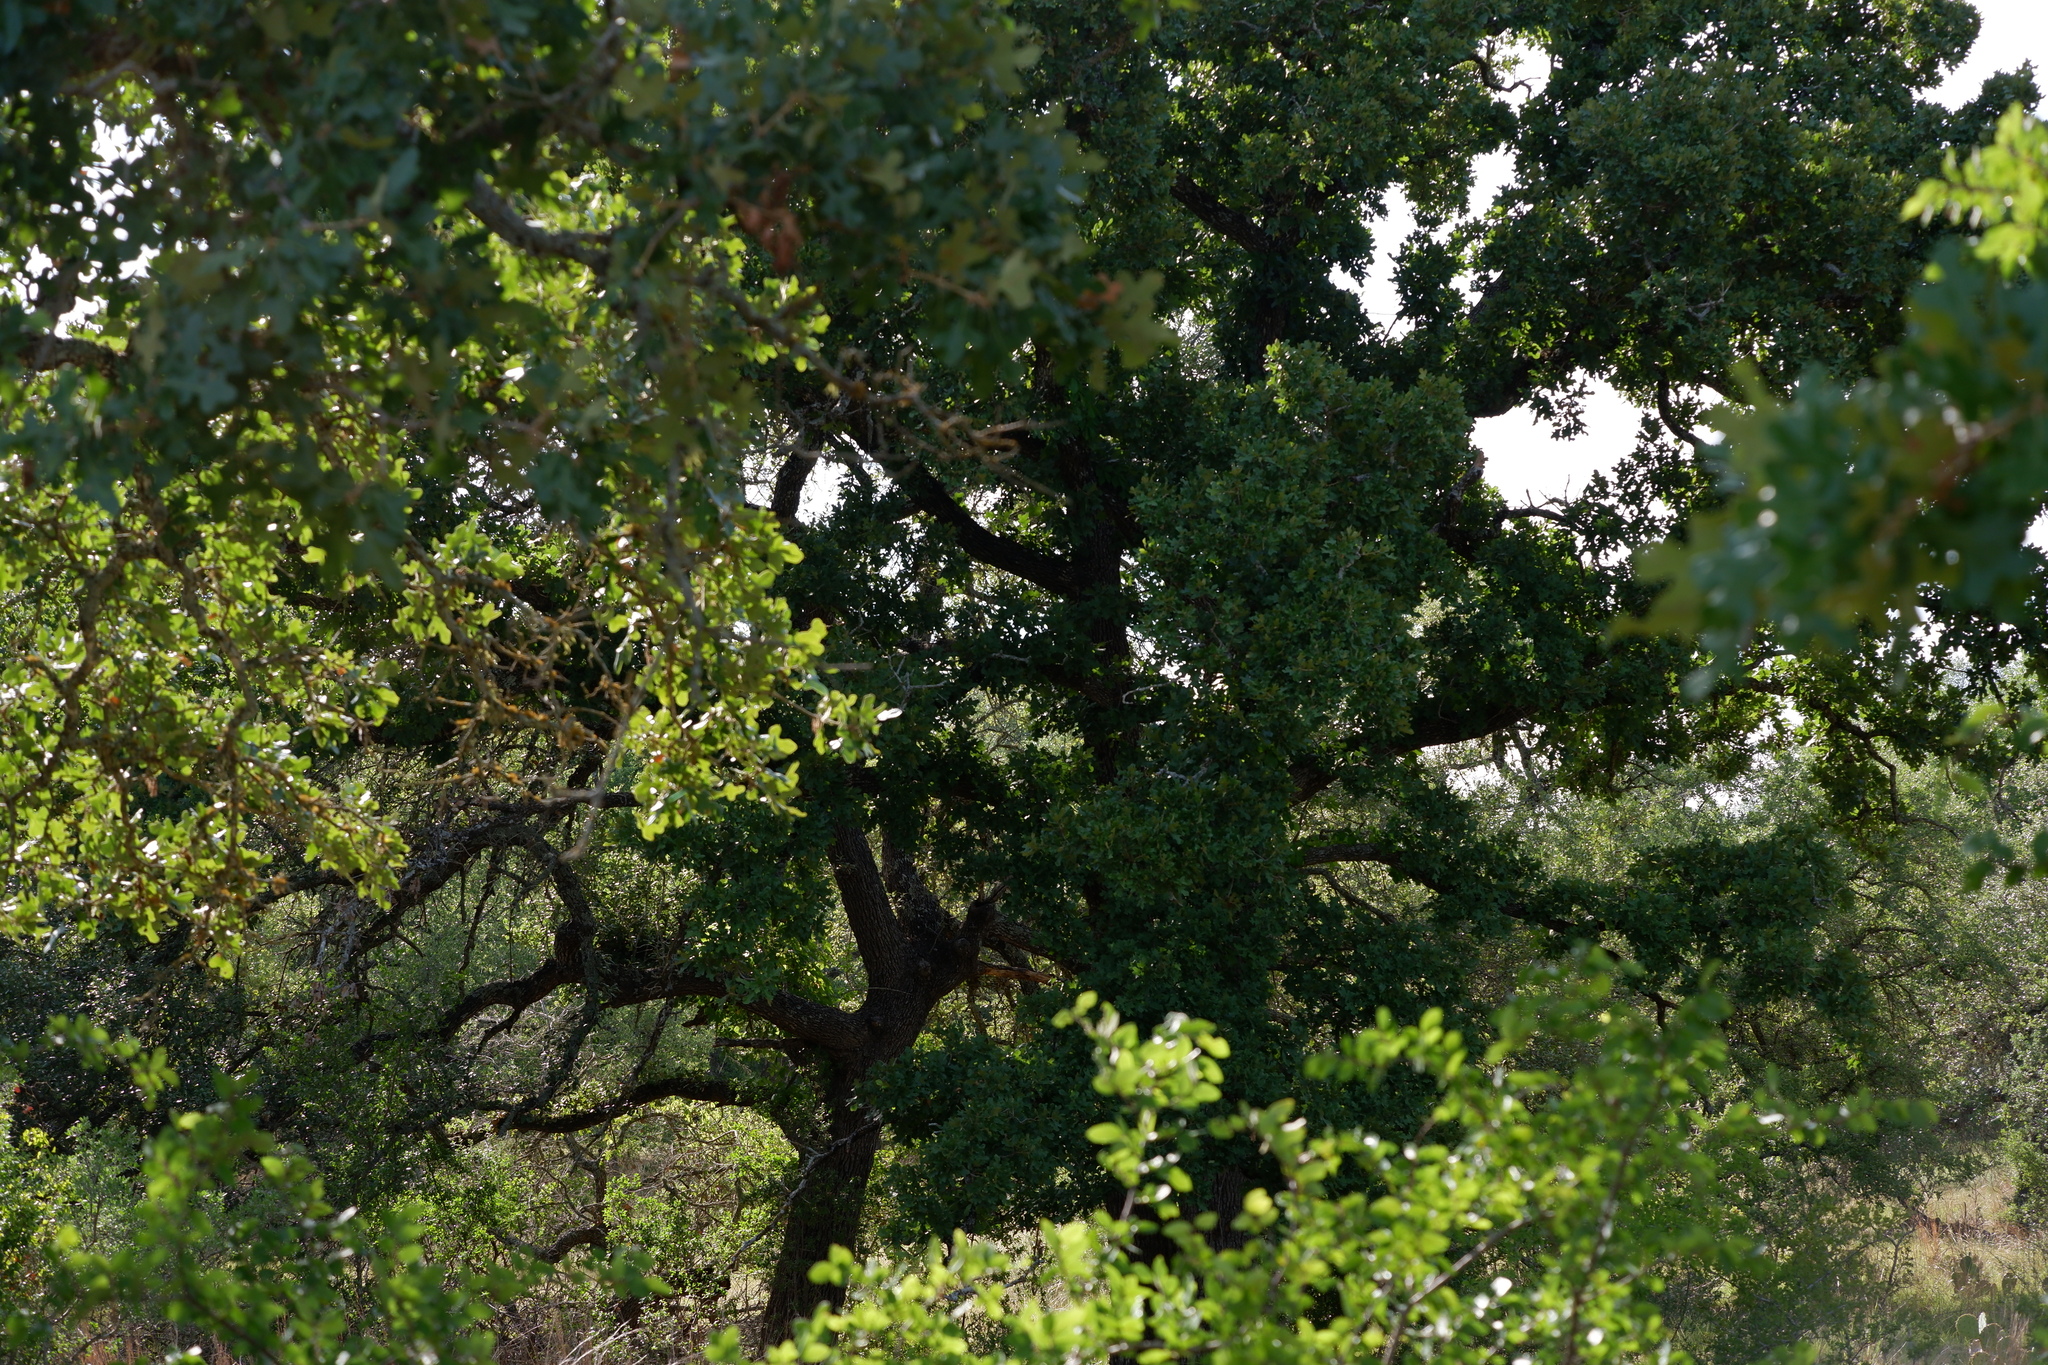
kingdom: Plantae
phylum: Tracheophyta
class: Magnoliopsida
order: Fagales
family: Fagaceae
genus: Quercus
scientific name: Quercus stellata
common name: Post oak
